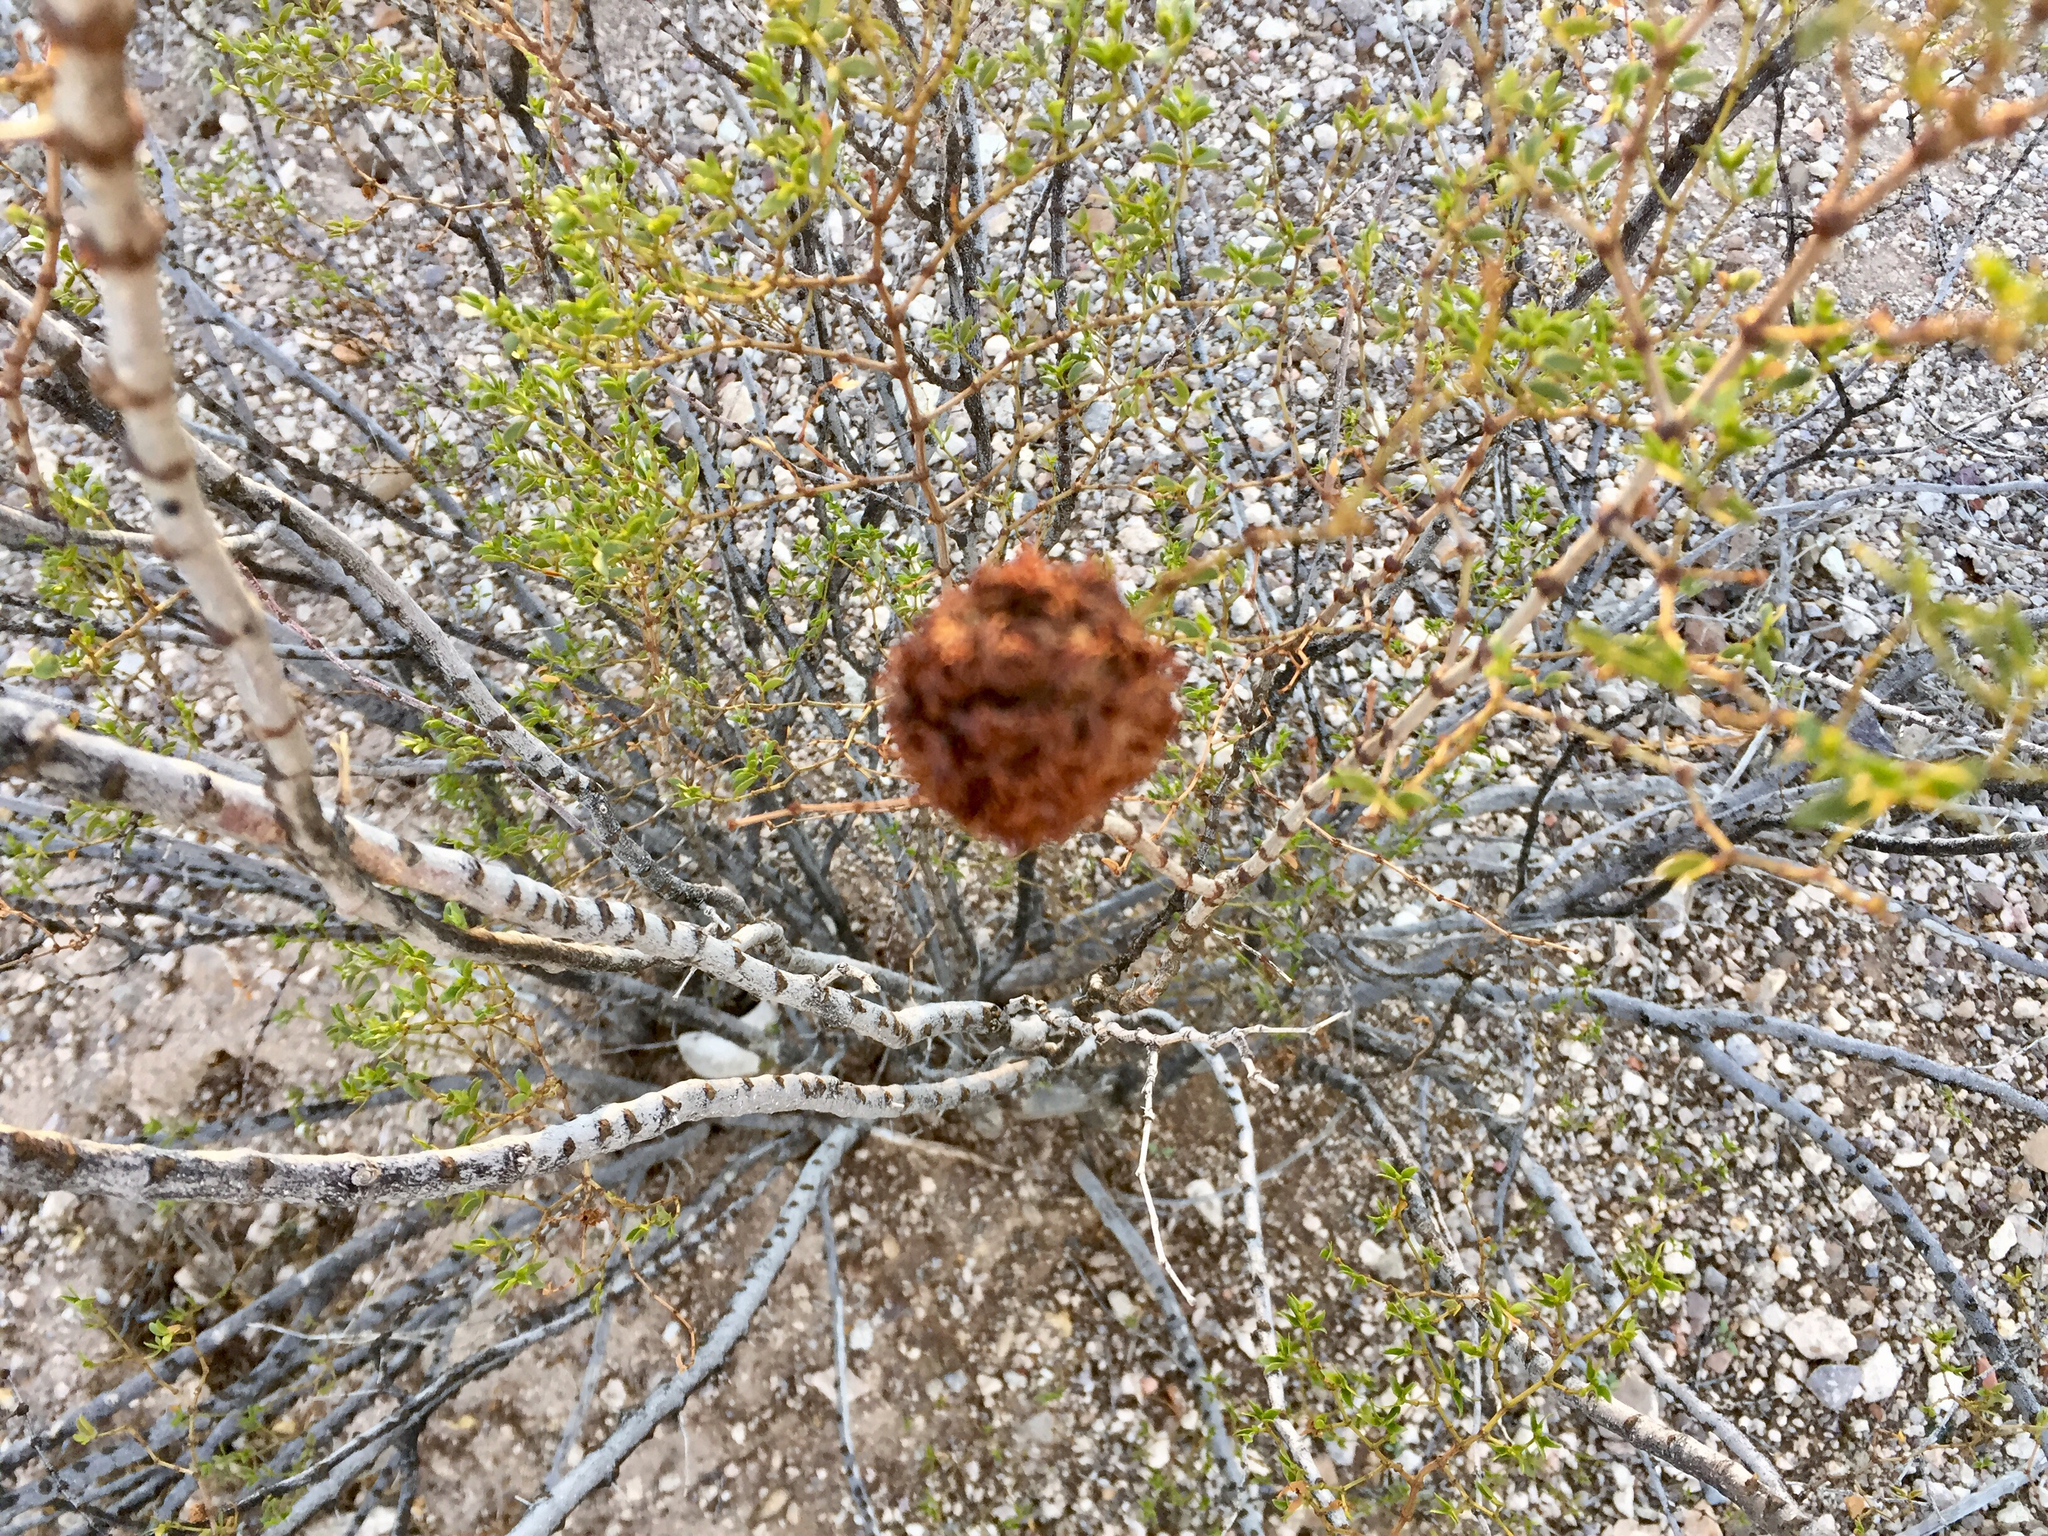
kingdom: Animalia
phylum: Arthropoda
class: Insecta
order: Diptera
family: Cecidomyiidae
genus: Asphondylia
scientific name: Asphondylia auripila
